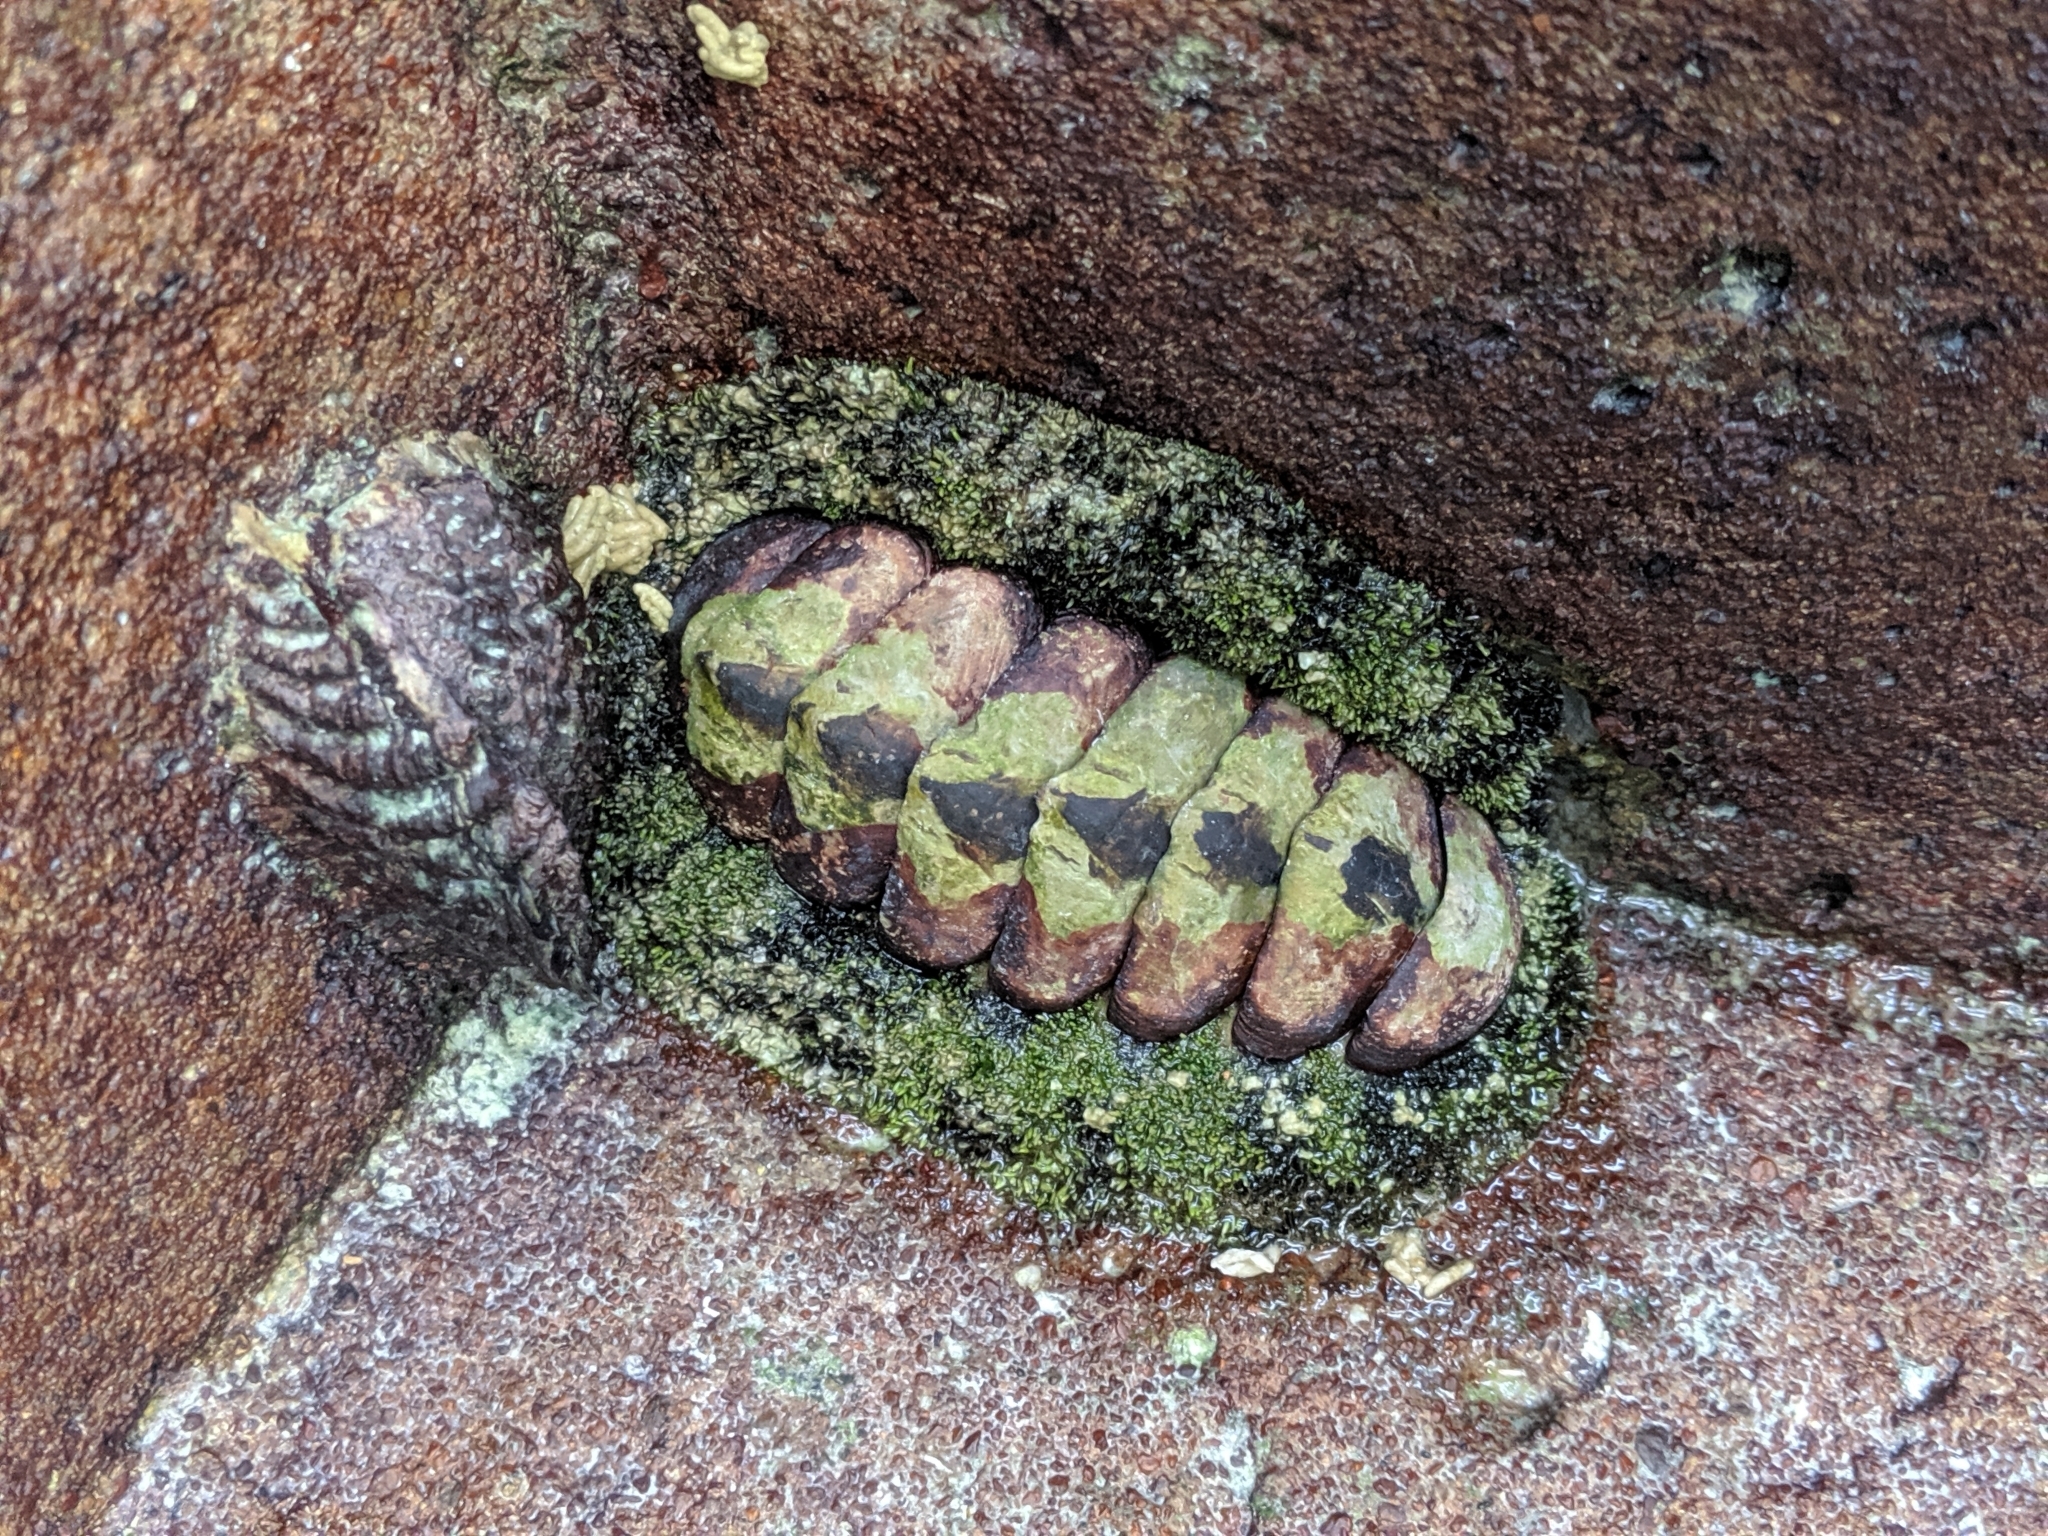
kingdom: Animalia
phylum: Mollusca
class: Polyplacophora
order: Chitonida
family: Chitonidae
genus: Acanthopleura
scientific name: Acanthopleura gemmata
